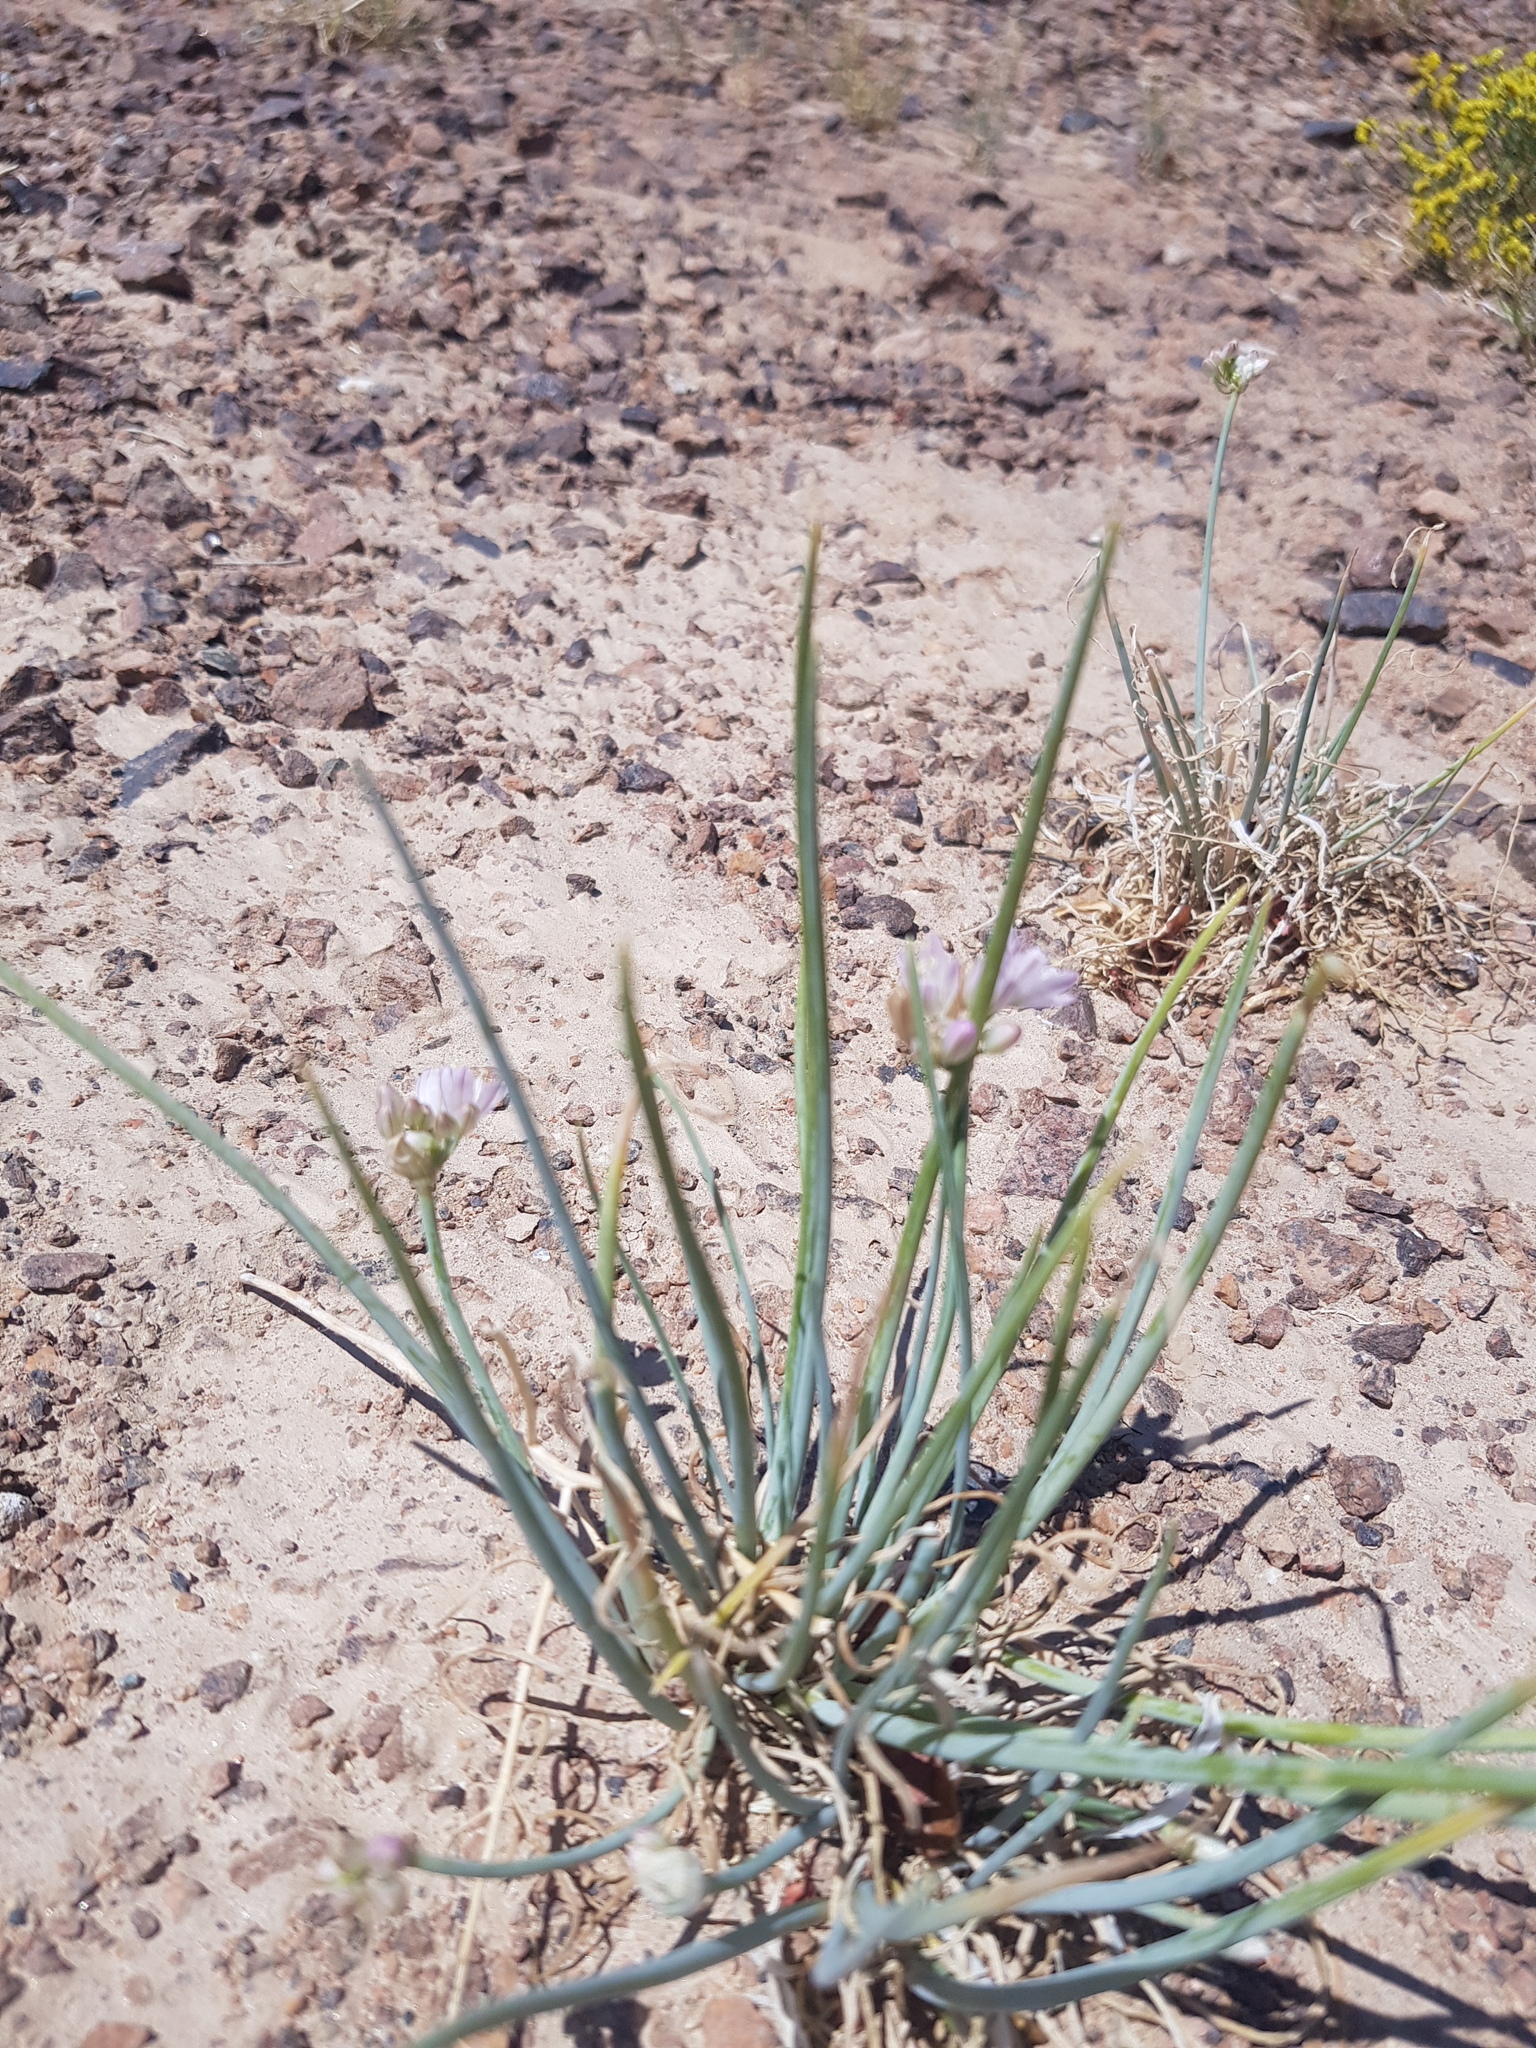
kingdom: Plantae
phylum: Tracheophyta
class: Liliopsida
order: Asparagales
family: Amaryllidaceae
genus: Allium
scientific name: Allium mongolicum
